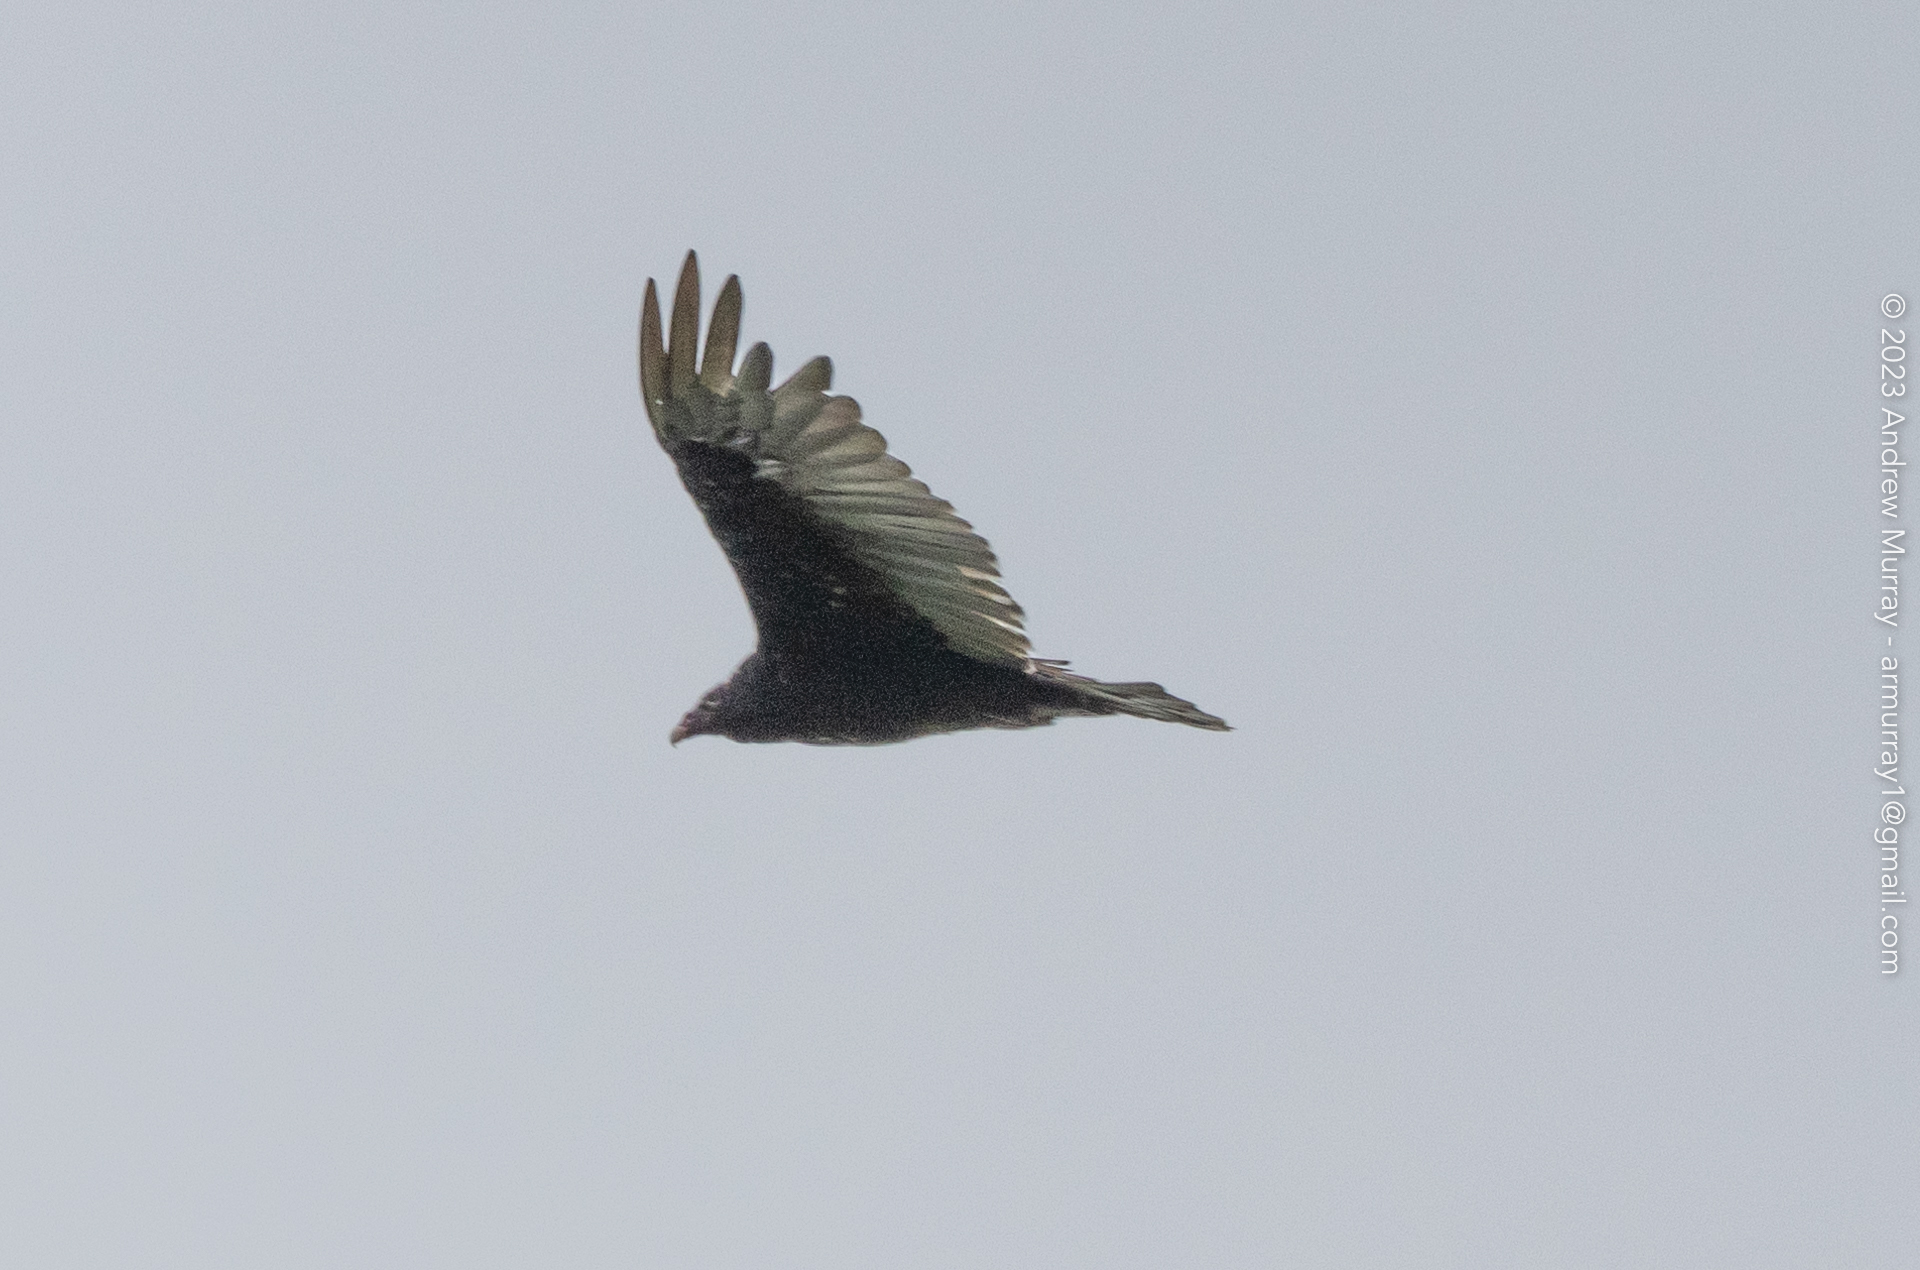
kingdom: Animalia
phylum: Chordata
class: Aves
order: Accipitriformes
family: Cathartidae
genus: Cathartes
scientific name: Cathartes aura
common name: Turkey vulture
